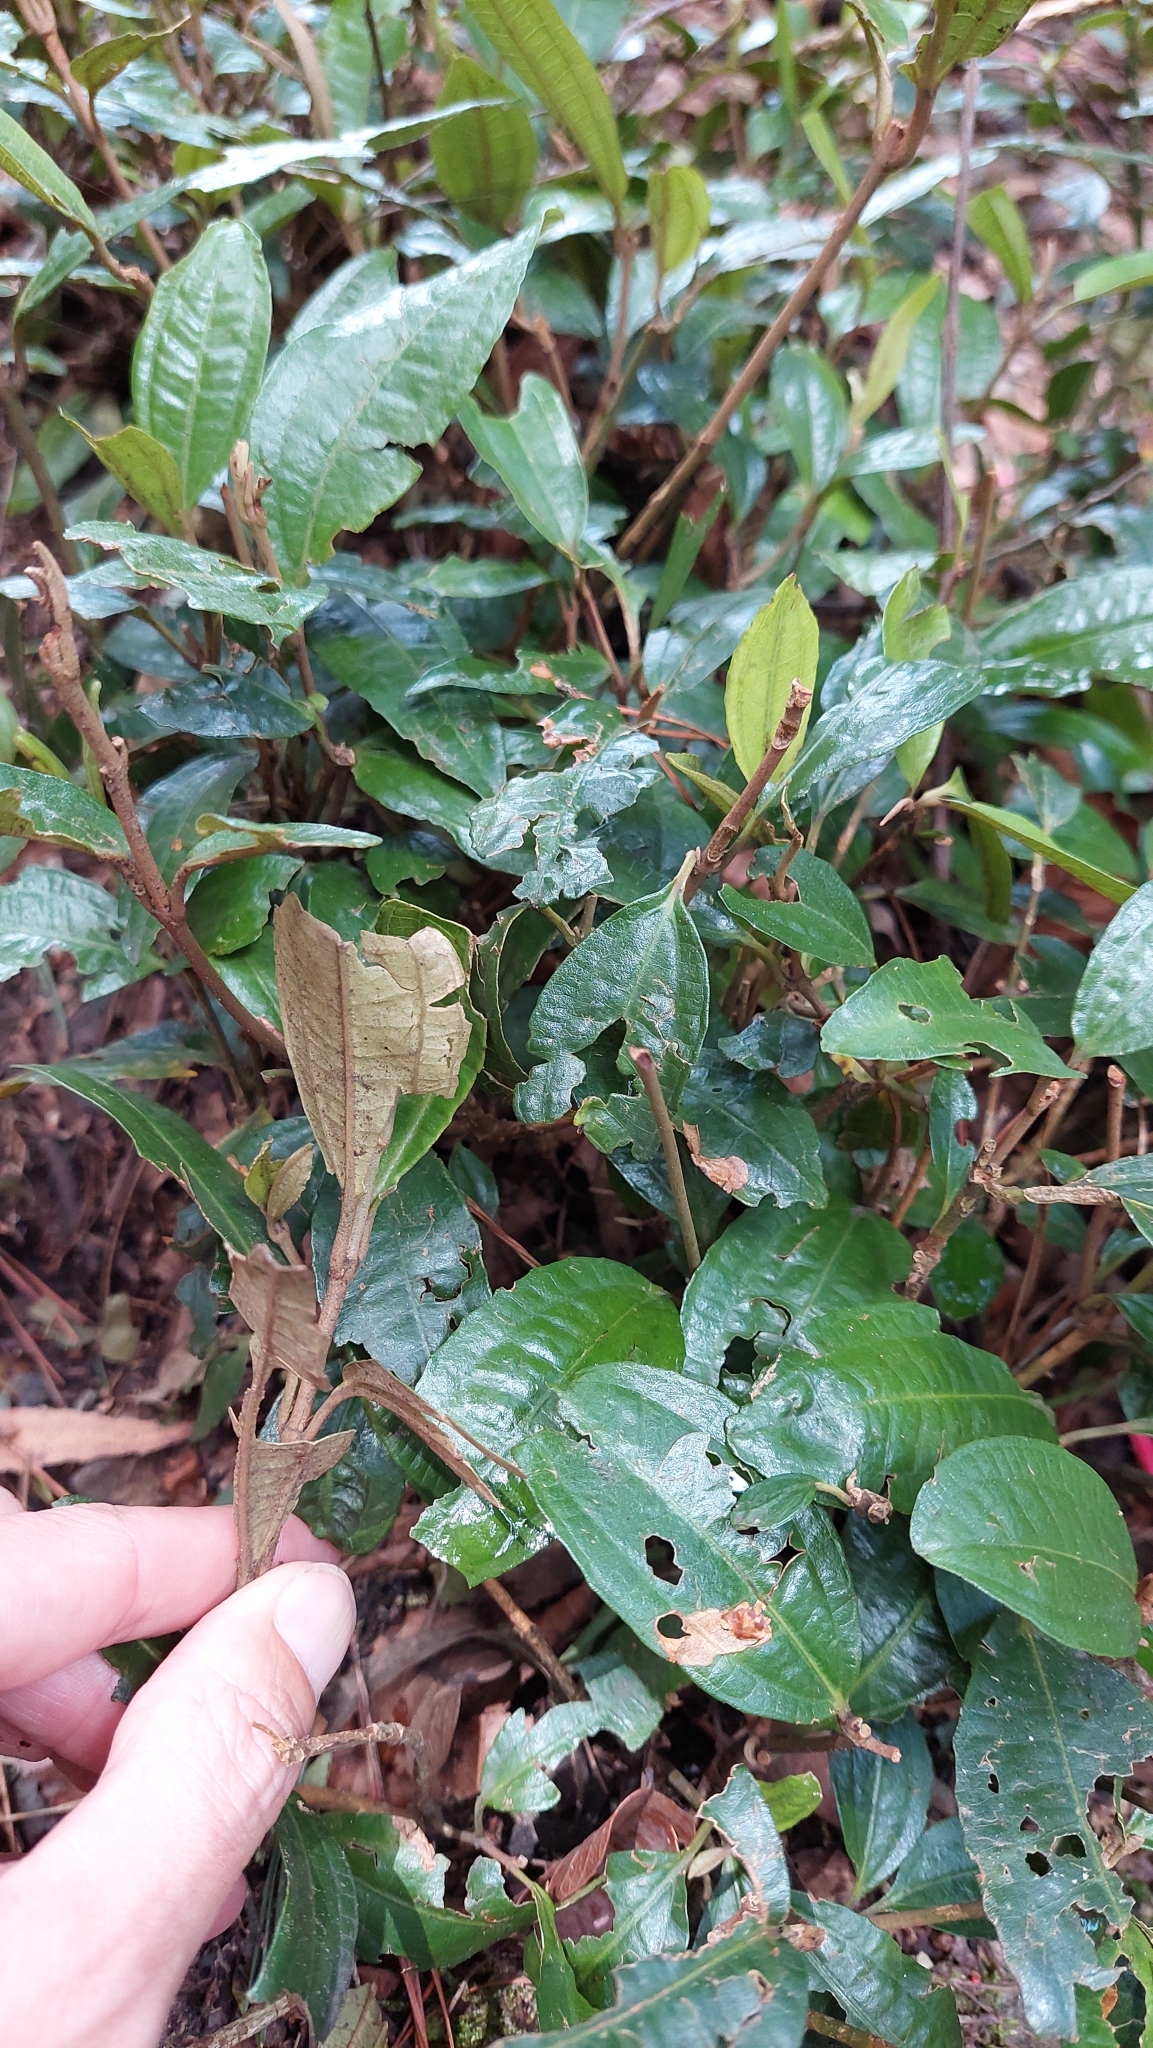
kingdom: Plantae
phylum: Tracheophyta
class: Magnoliopsida
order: Myrtales
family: Melastomataceae
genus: Miconia
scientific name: Miconia squamulosa
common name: Squamulose maya
